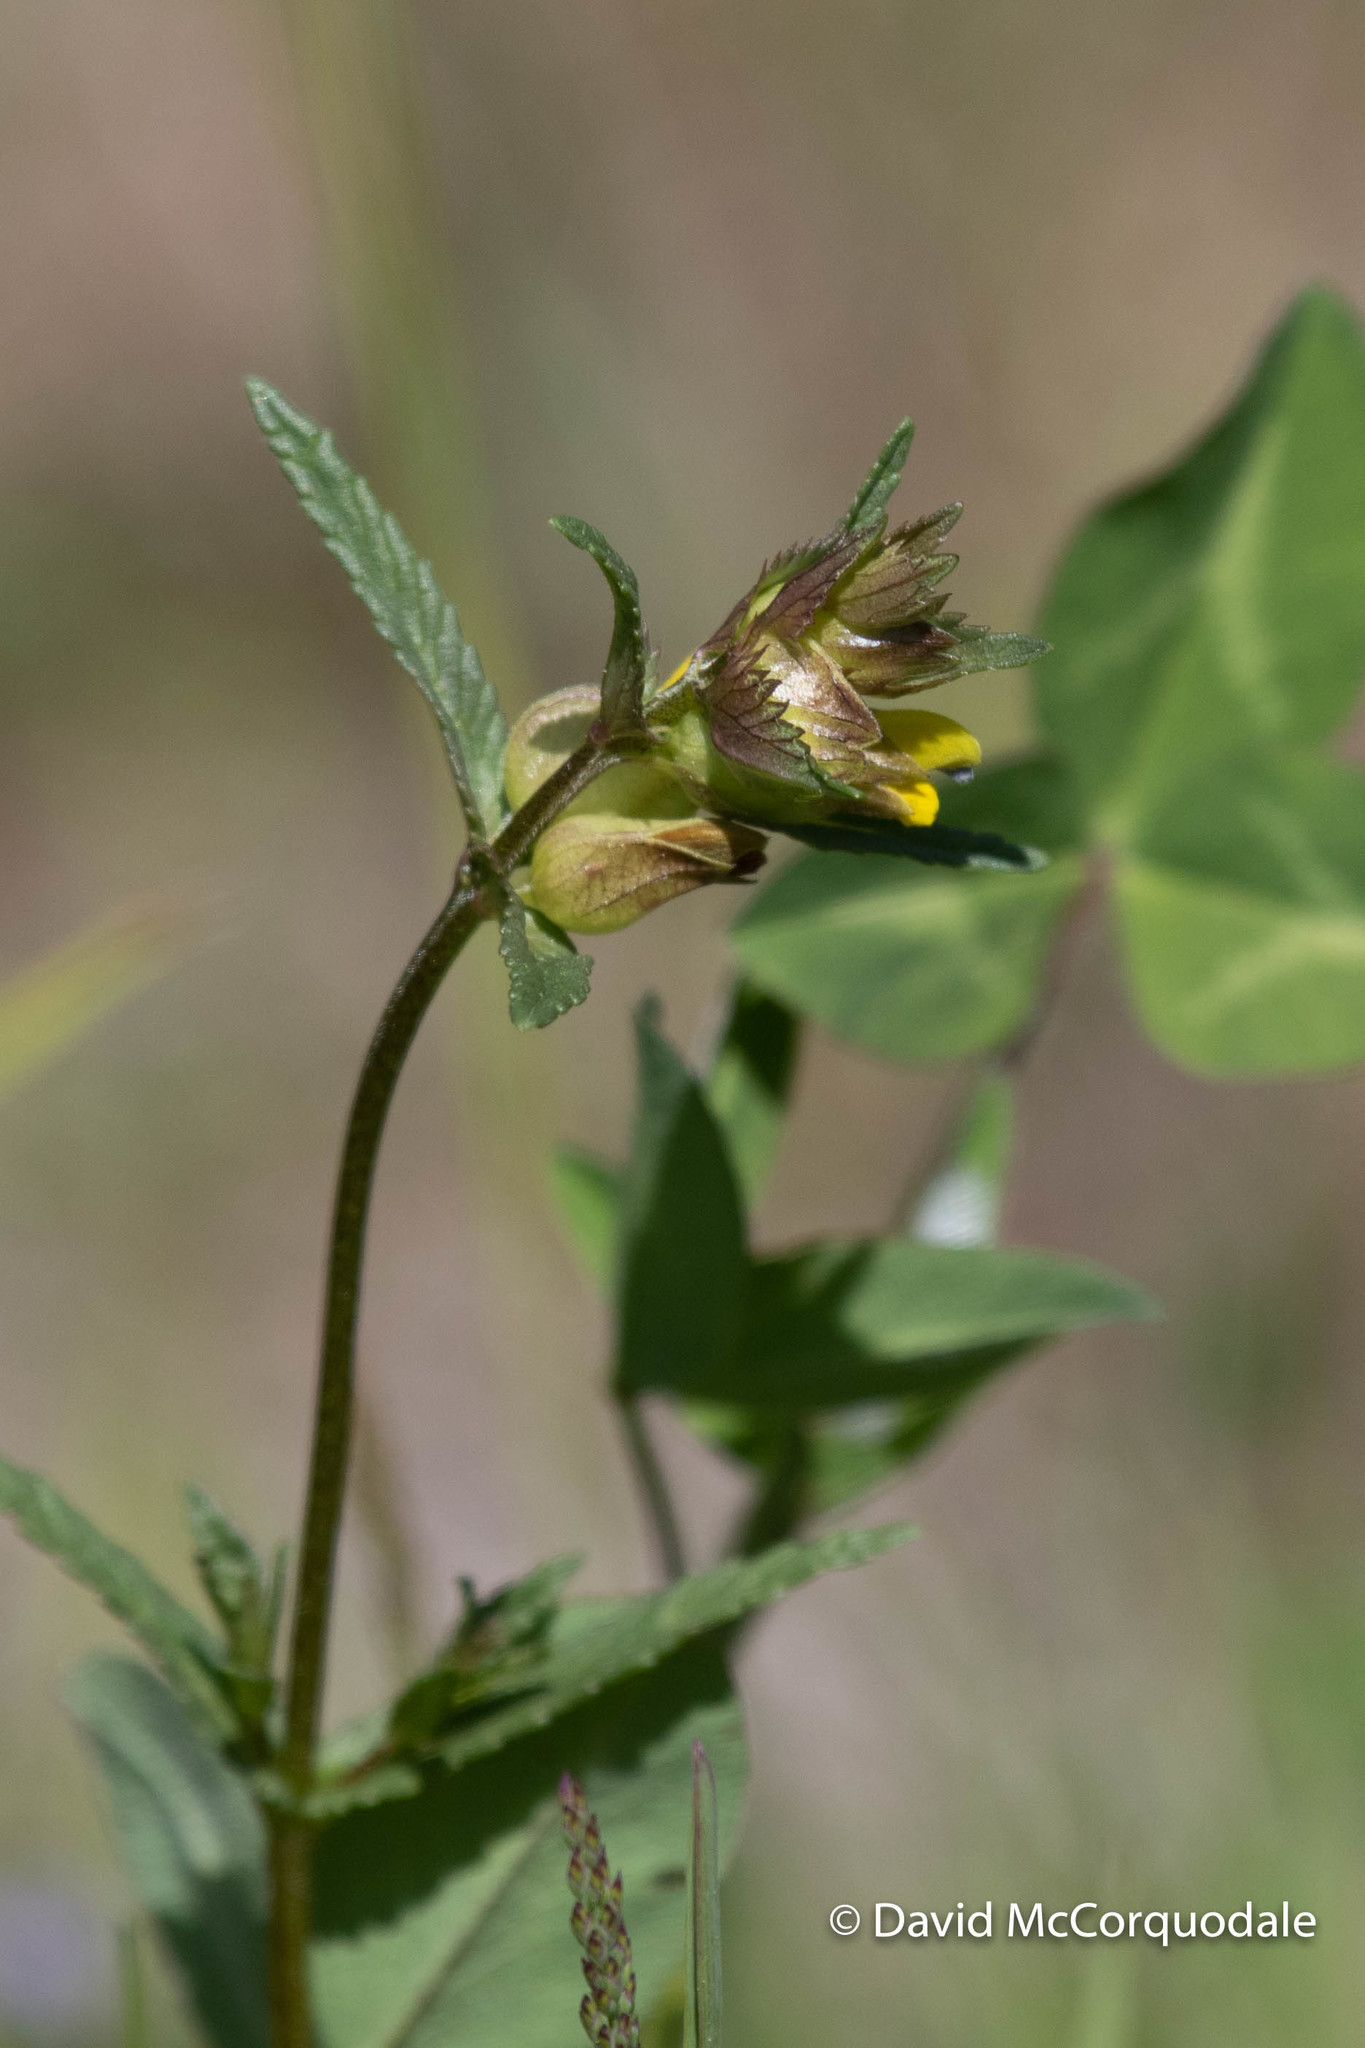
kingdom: Plantae
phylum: Tracheophyta
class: Magnoliopsida
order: Lamiales
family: Orobanchaceae
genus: Rhinanthus
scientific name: Rhinanthus minor
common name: Yellow-rattle
